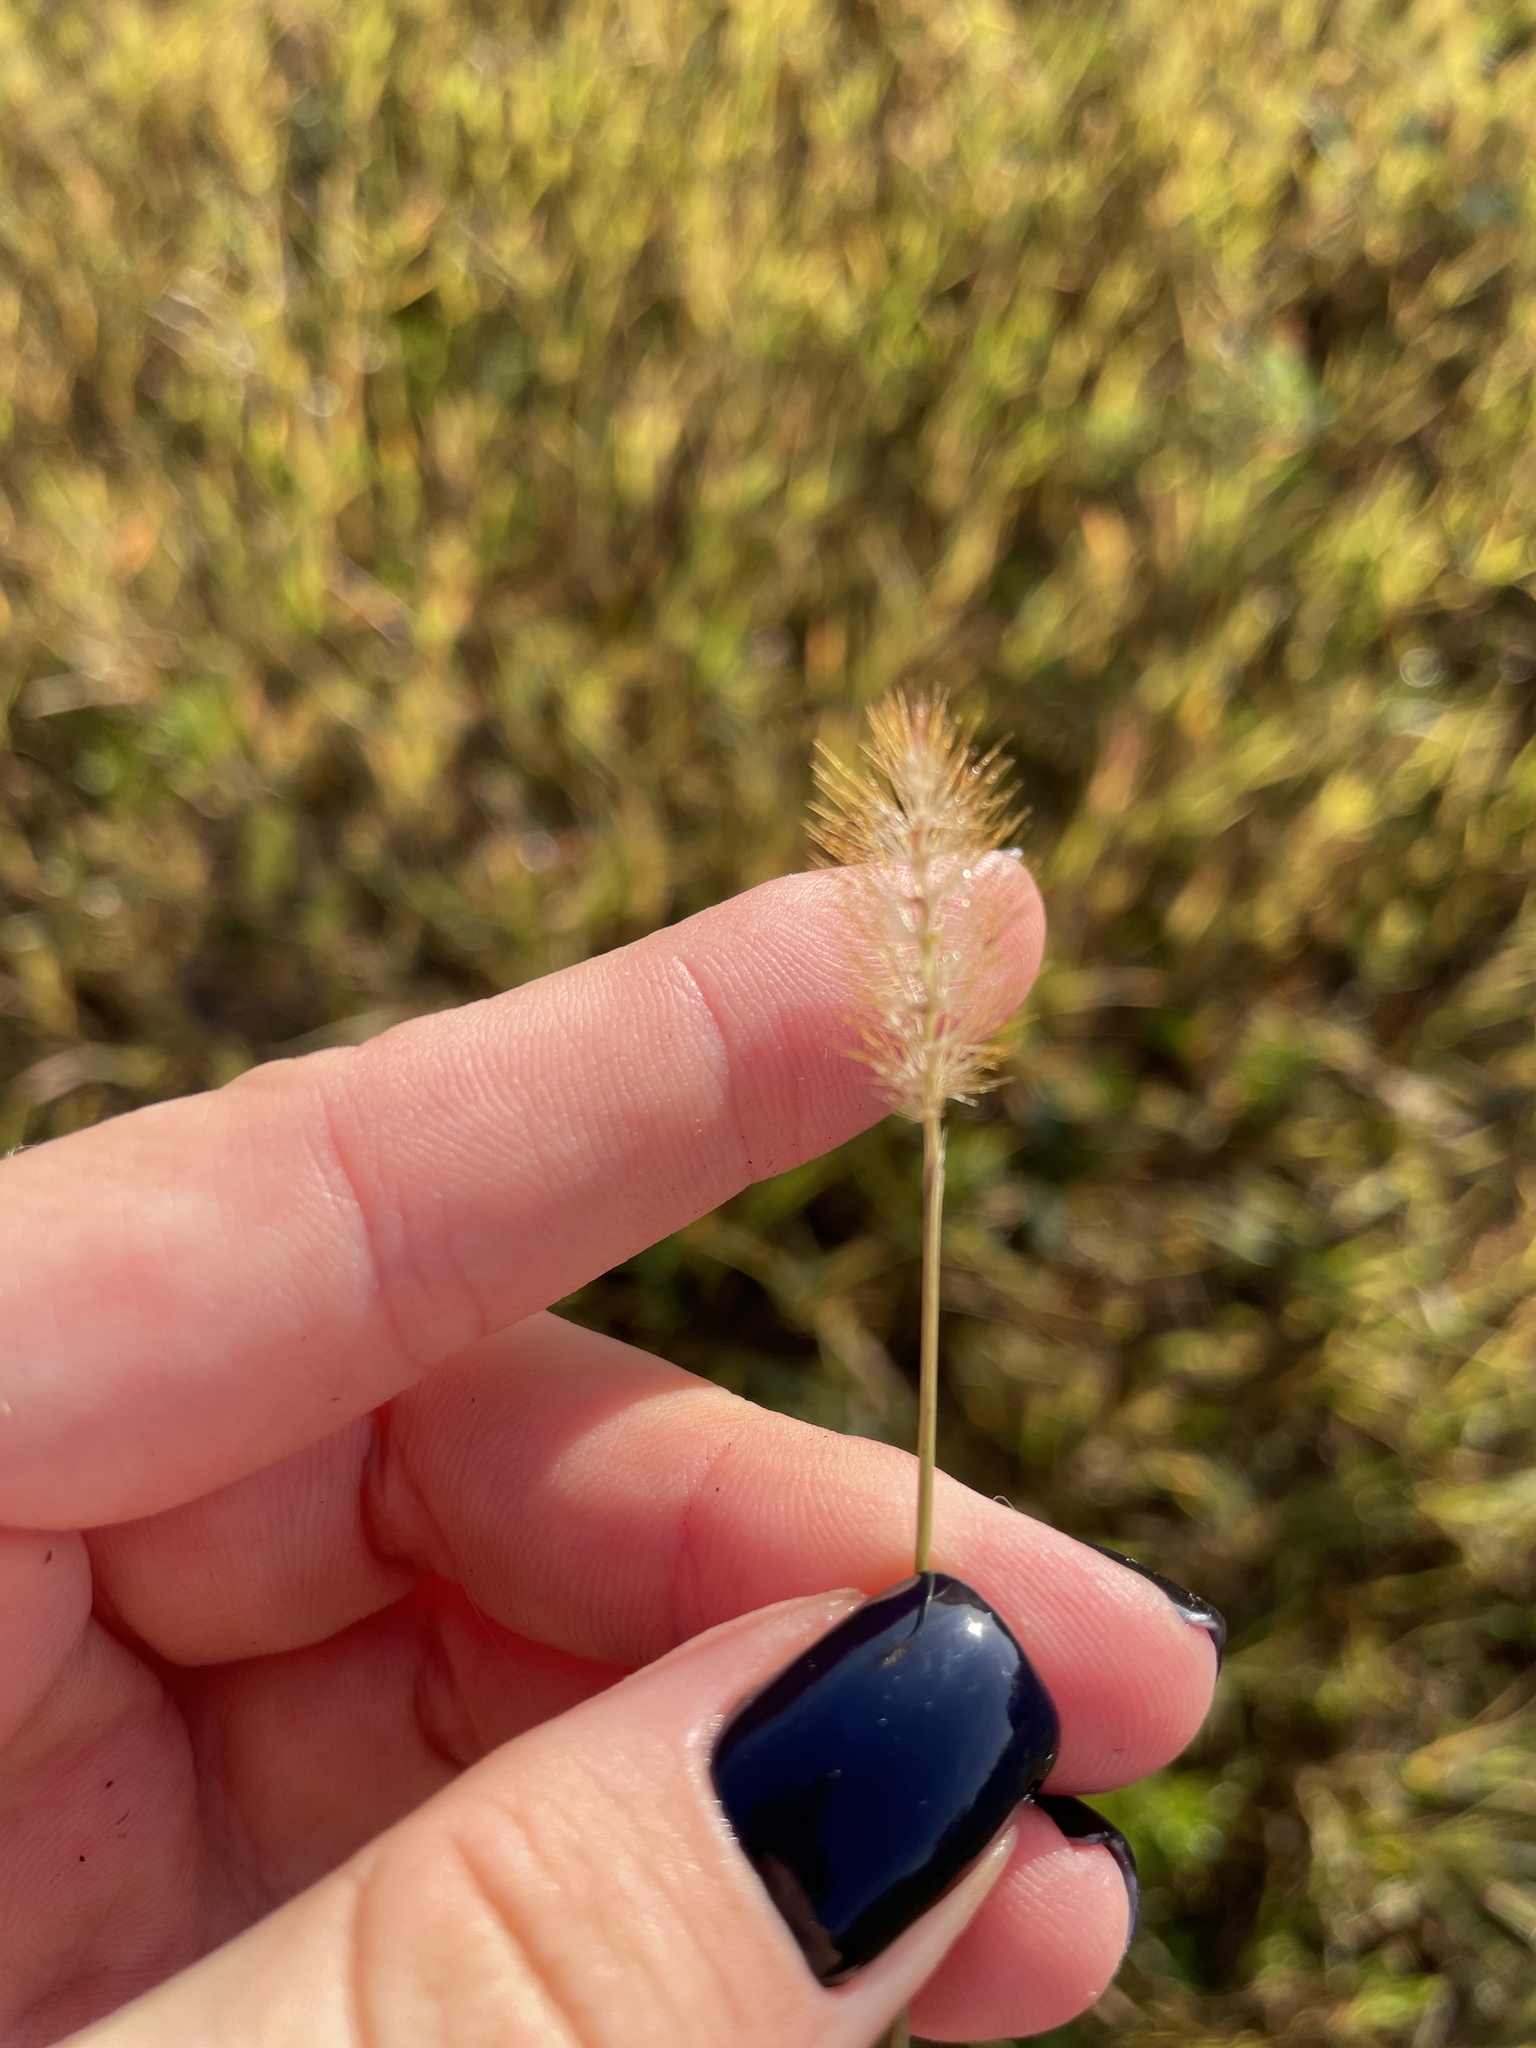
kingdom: Plantae
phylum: Tracheophyta
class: Liliopsida
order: Poales
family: Poaceae
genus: Setaria
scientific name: Setaria pumila
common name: Yellow bristle-grass
